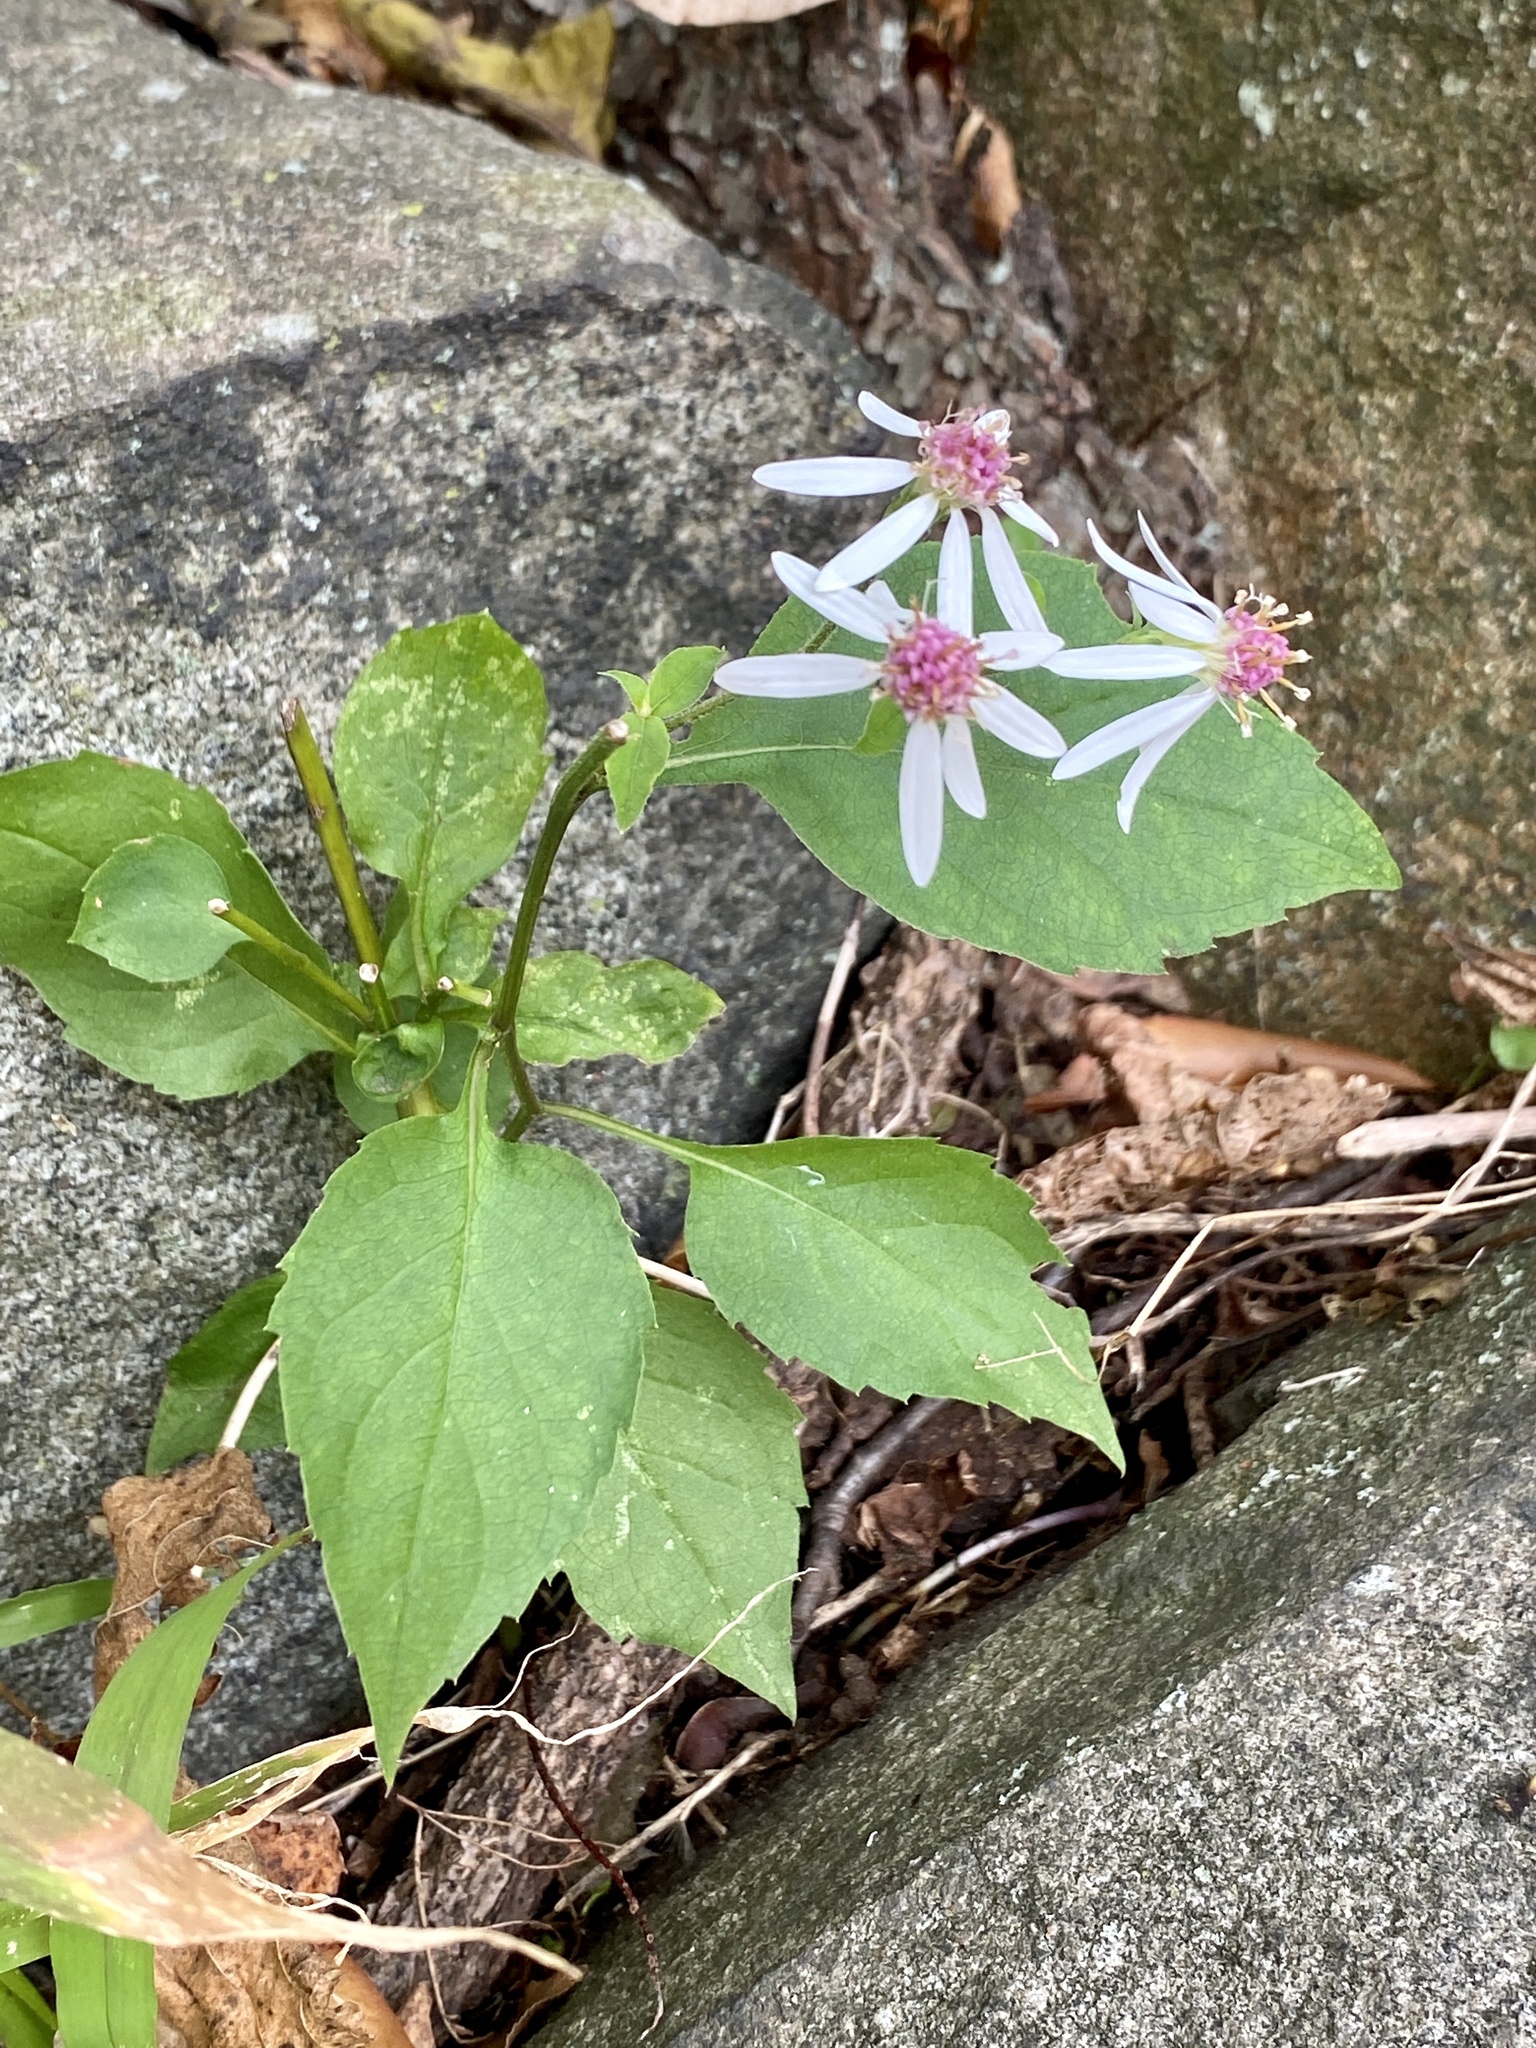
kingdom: Plantae
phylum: Tracheophyta
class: Magnoliopsida
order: Asterales
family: Asteraceae
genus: Eurybia
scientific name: Eurybia divaricata
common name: White wood aster
